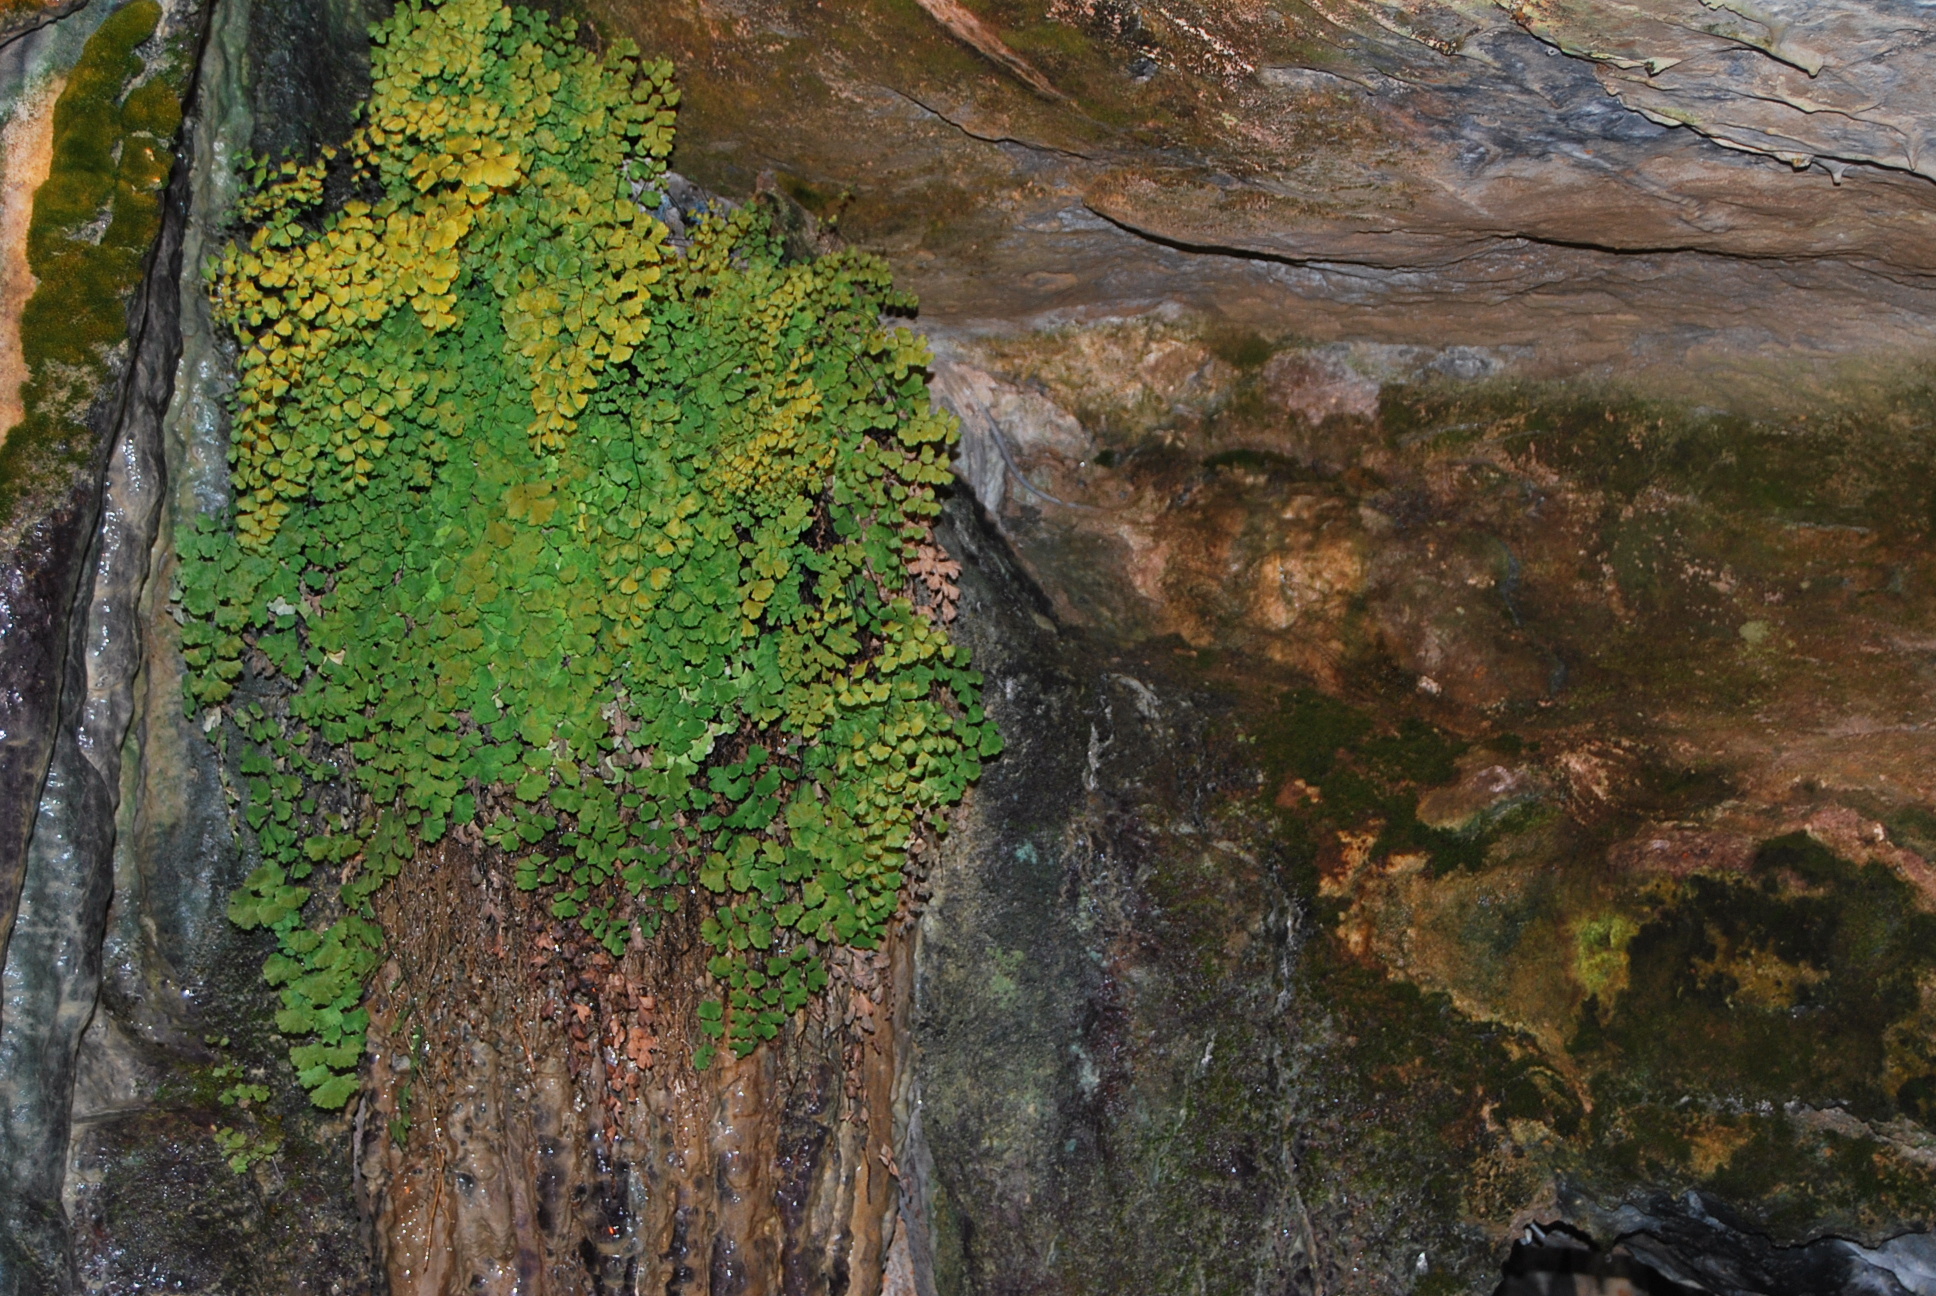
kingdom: Plantae
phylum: Tracheophyta
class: Polypodiopsida
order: Polypodiales
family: Pteridaceae
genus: Adiantum
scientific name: Adiantum capillus-veneris
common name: Maidenhair fern
